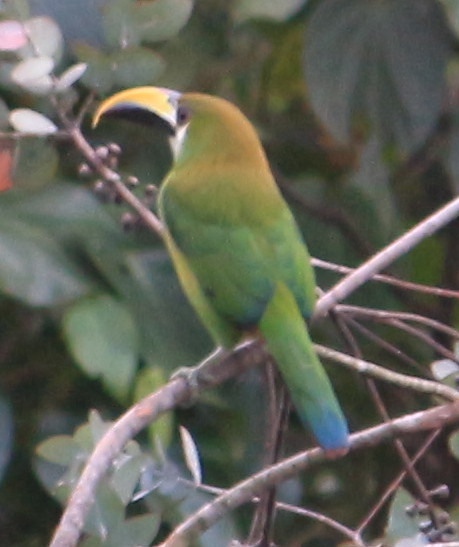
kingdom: Animalia
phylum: Chordata
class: Aves
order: Piciformes
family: Ramphastidae
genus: Aulacorhynchus
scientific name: Aulacorhynchus prasinus
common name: Emerald toucanet
